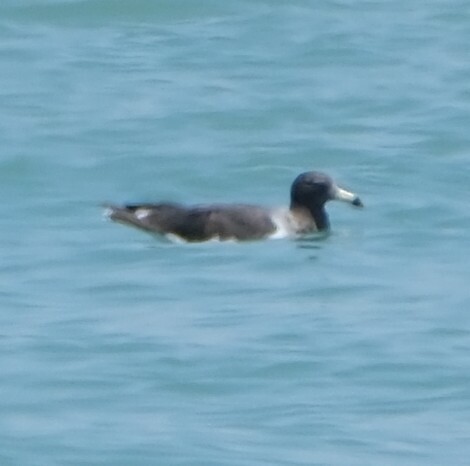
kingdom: Animalia
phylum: Chordata
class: Aves
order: Charadriiformes
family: Laridae
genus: Larus
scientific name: Larus belcheri
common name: Belcher's gull
